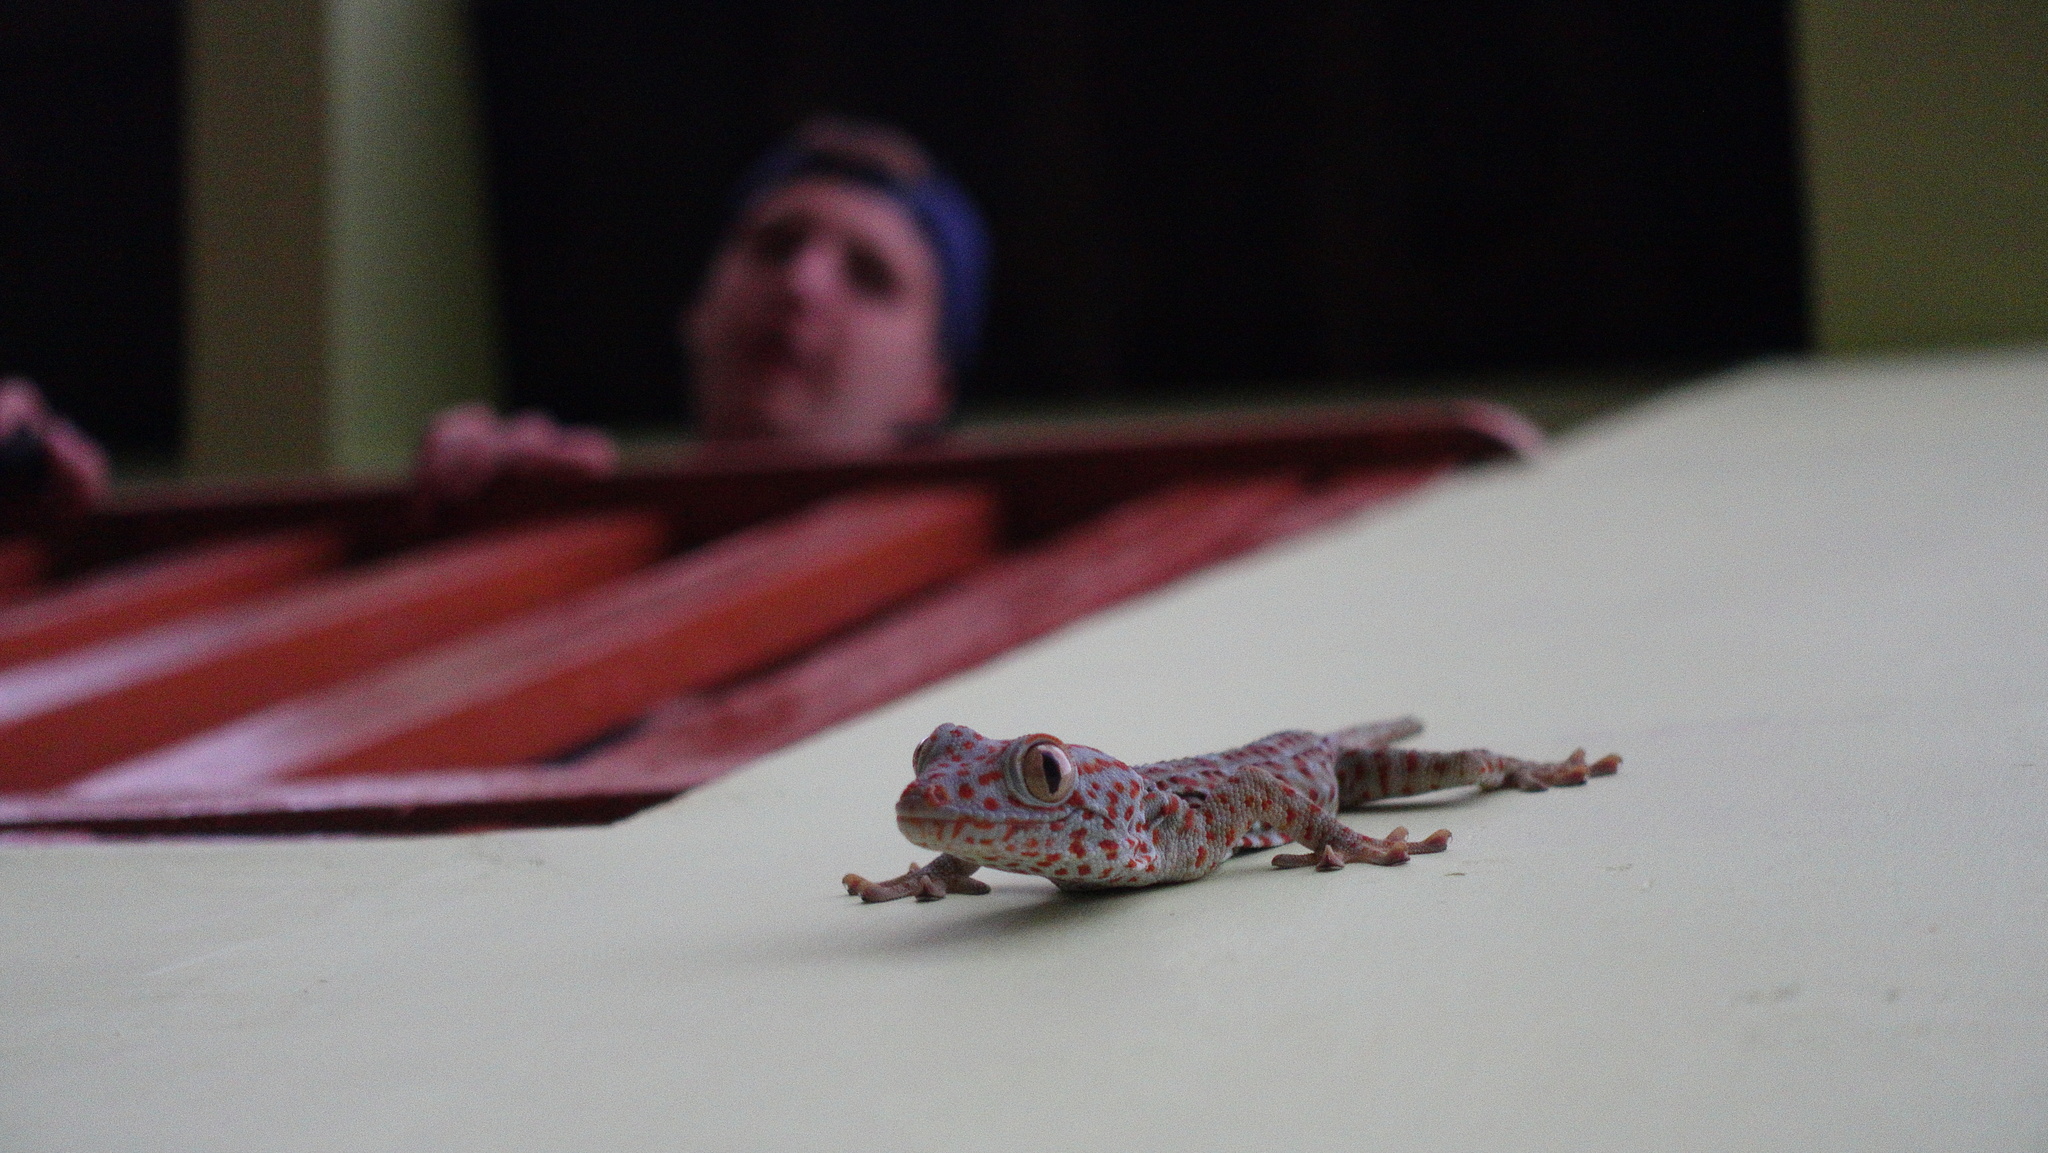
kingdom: Animalia
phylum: Chordata
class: Squamata
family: Gekkonidae
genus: Gekko
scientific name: Gekko gecko
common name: Tokay gecko
